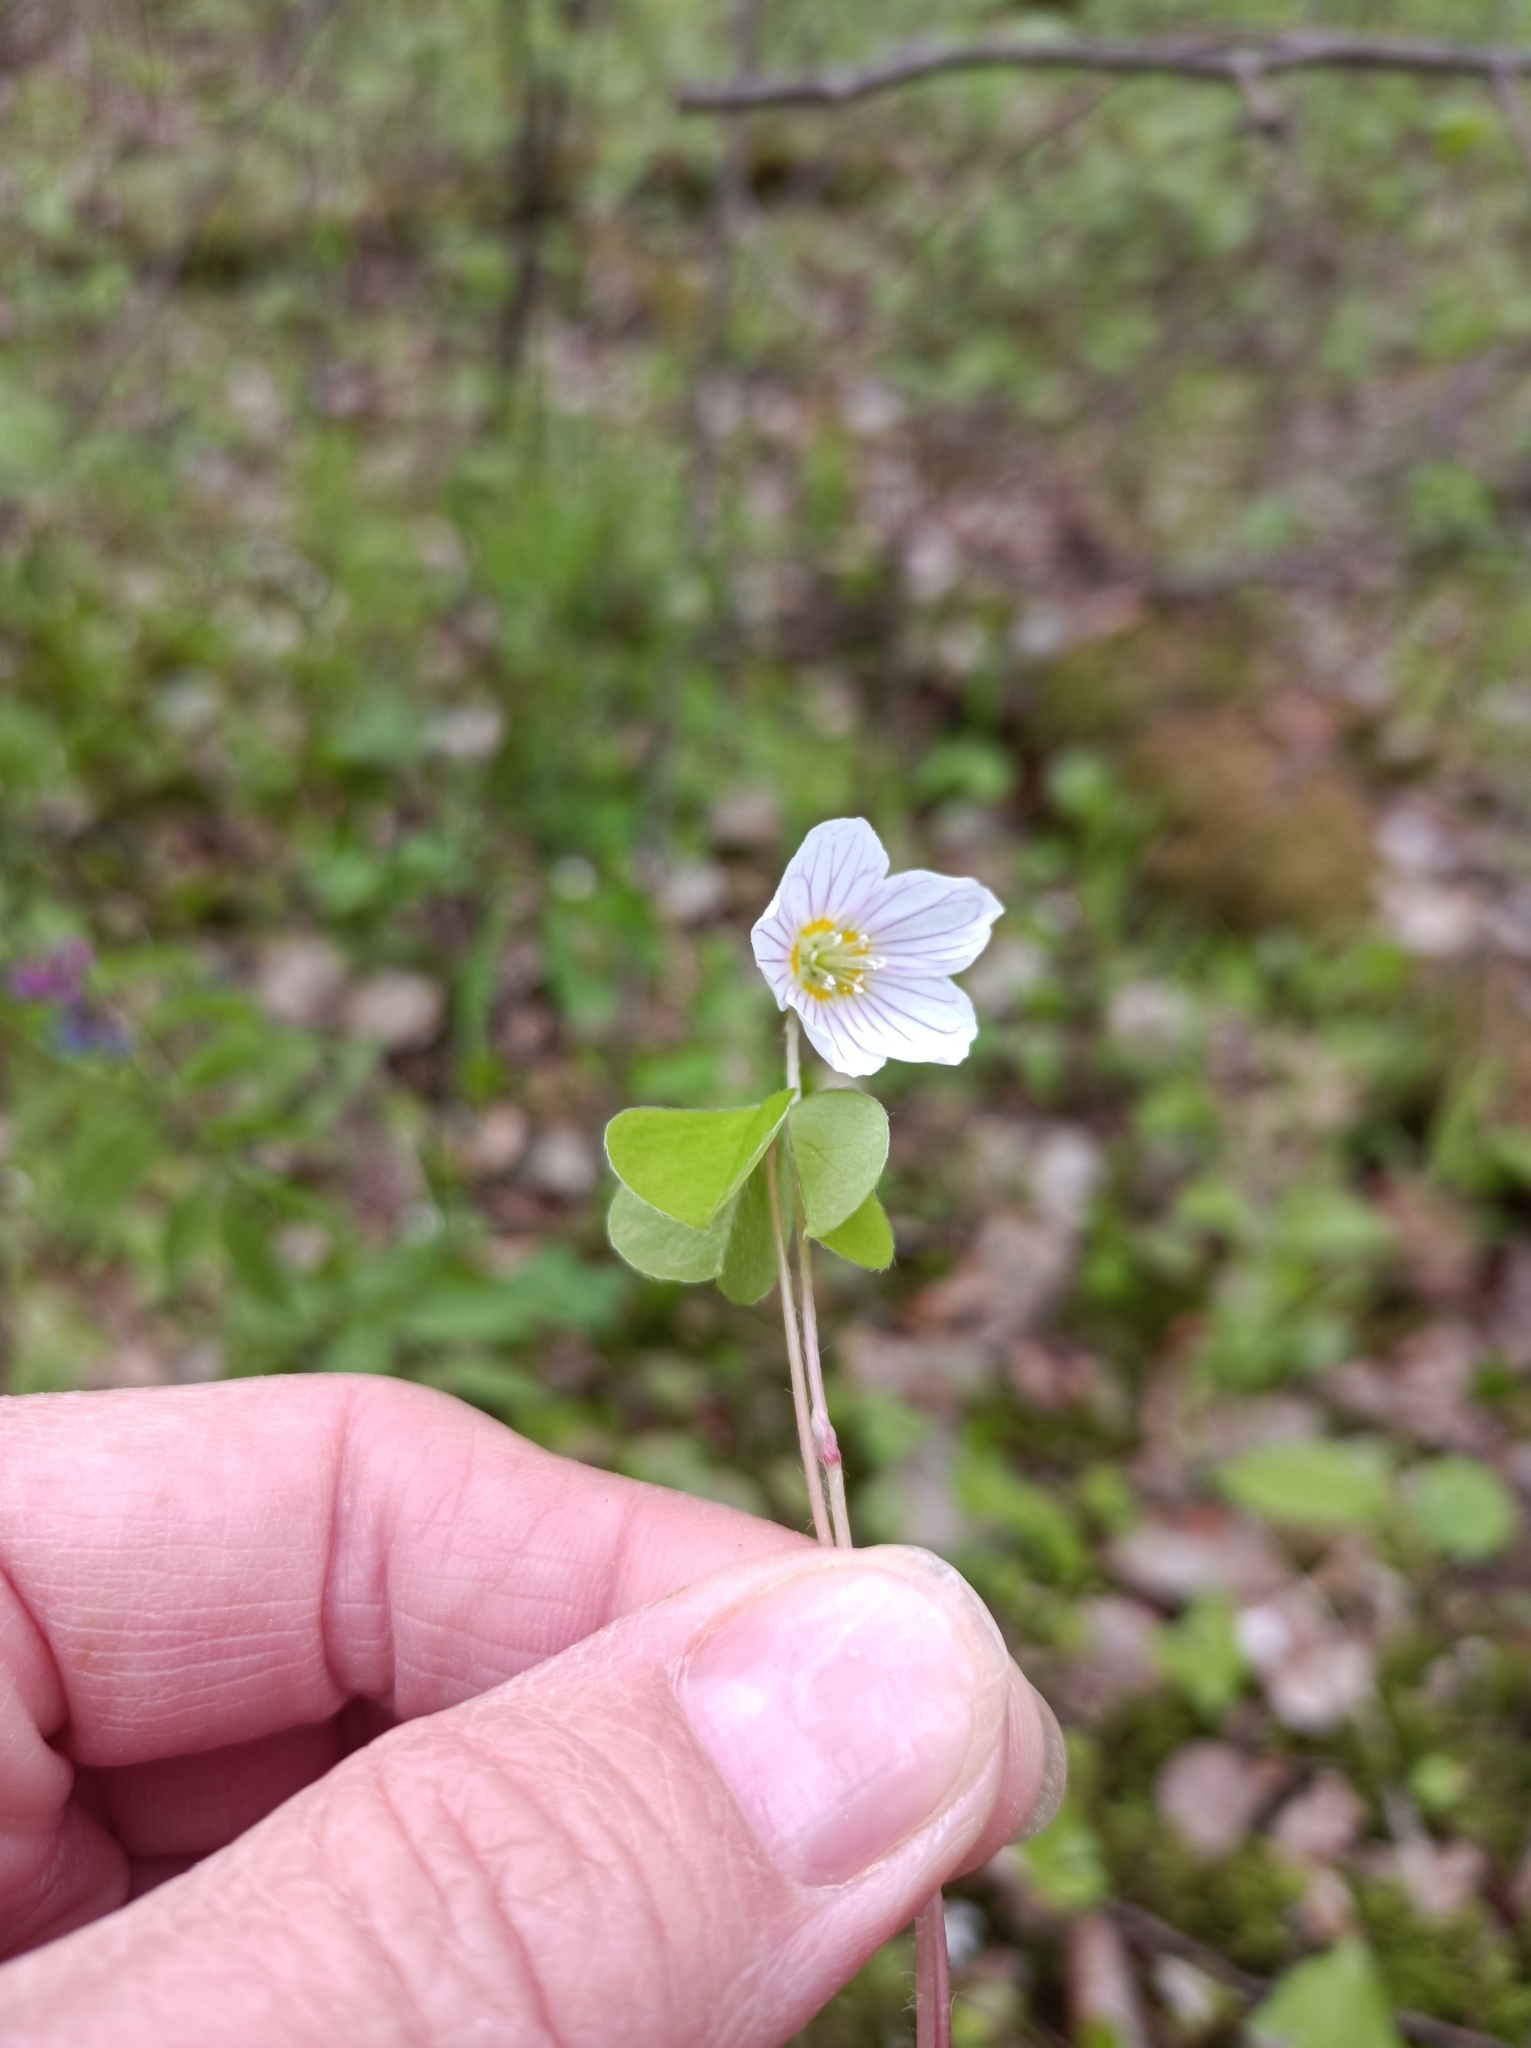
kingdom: Plantae
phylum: Tracheophyta
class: Magnoliopsida
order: Oxalidales
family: Oxalidaceae
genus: Oxalis
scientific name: Oxalis acetosella
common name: Wood-sorrel
